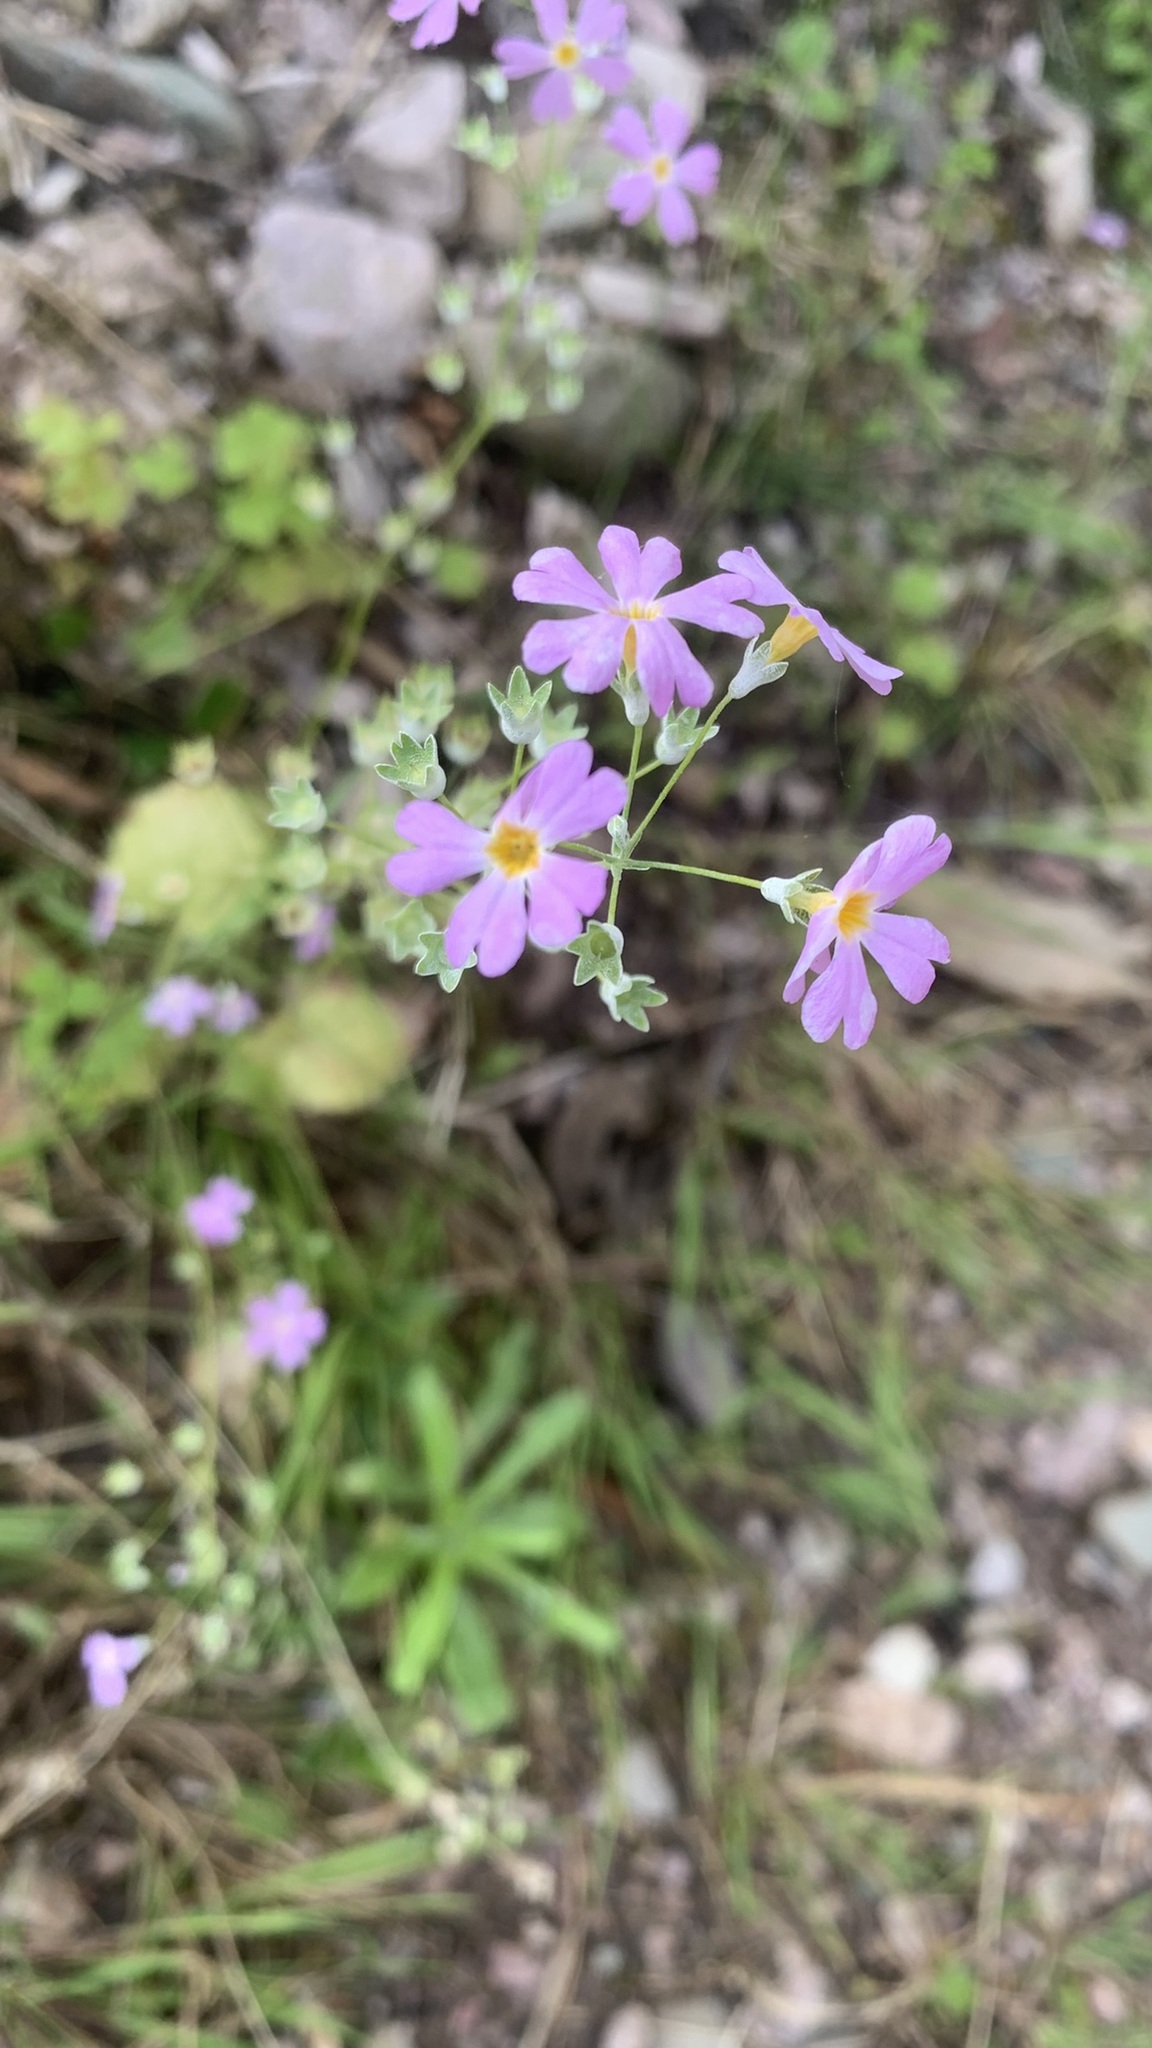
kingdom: Plantae
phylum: Tracheophyta
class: Magnoliopsida
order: Ericales
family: Primulaceae
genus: Primula
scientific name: Primula malacoides
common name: Baby primrose
